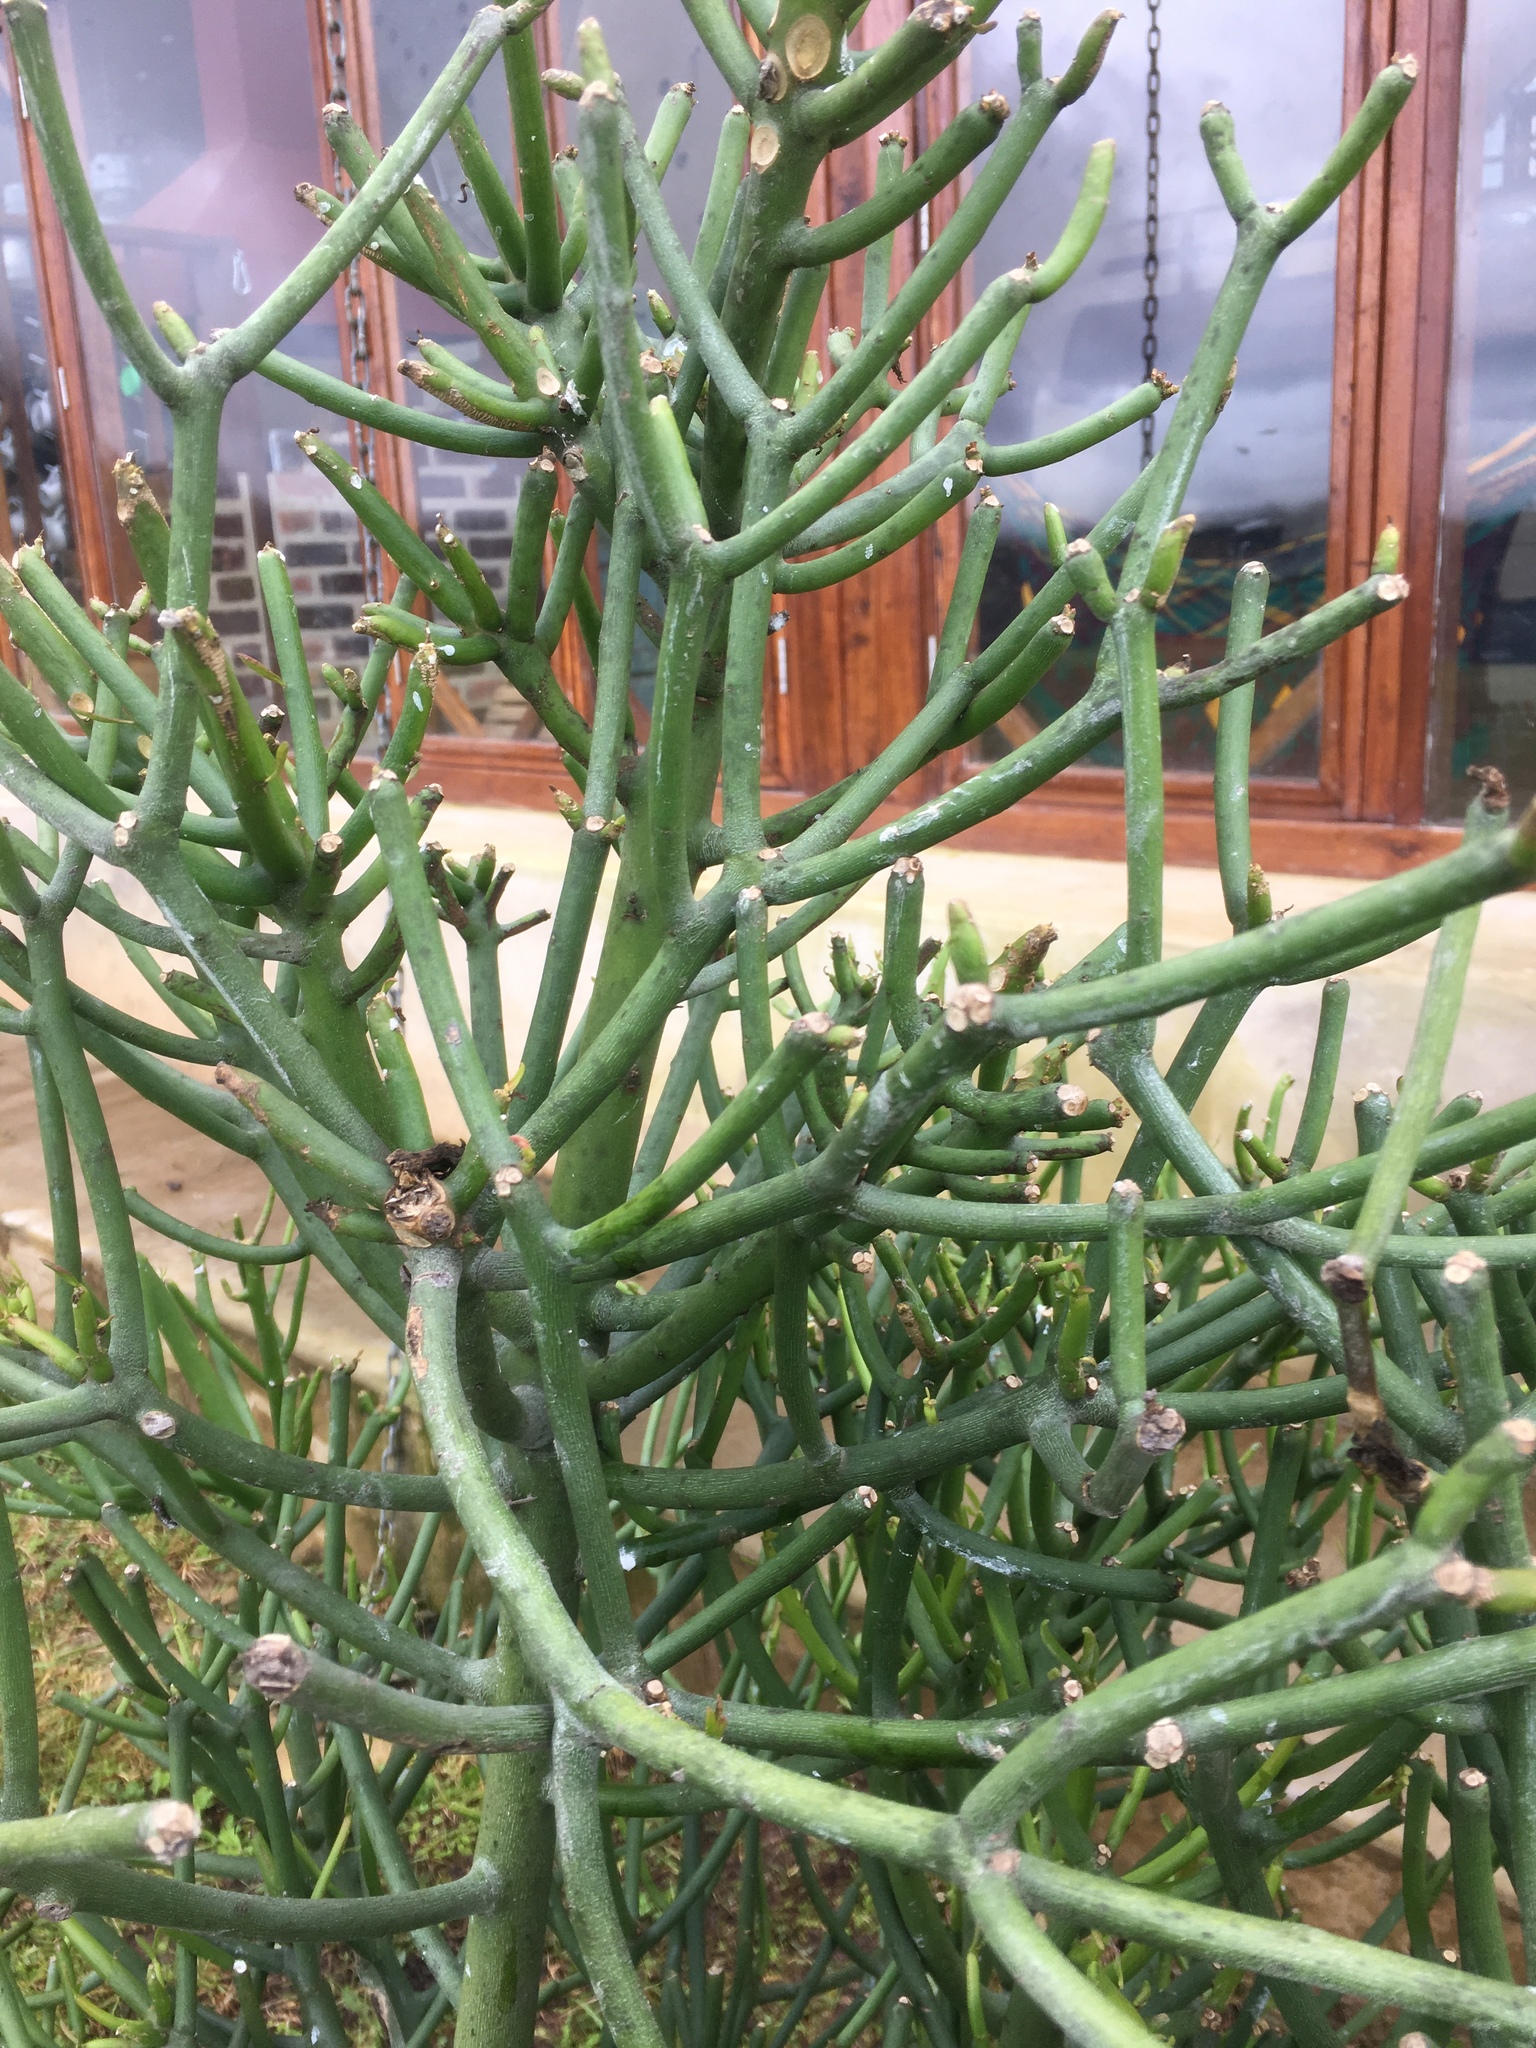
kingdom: Plantae
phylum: Tracheophyta
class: Magnoliopsida
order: Malpighiales
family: Euphorbiaceae
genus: Euphorbia
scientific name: Euphorbia tirucalli
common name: Indiantree spurge
